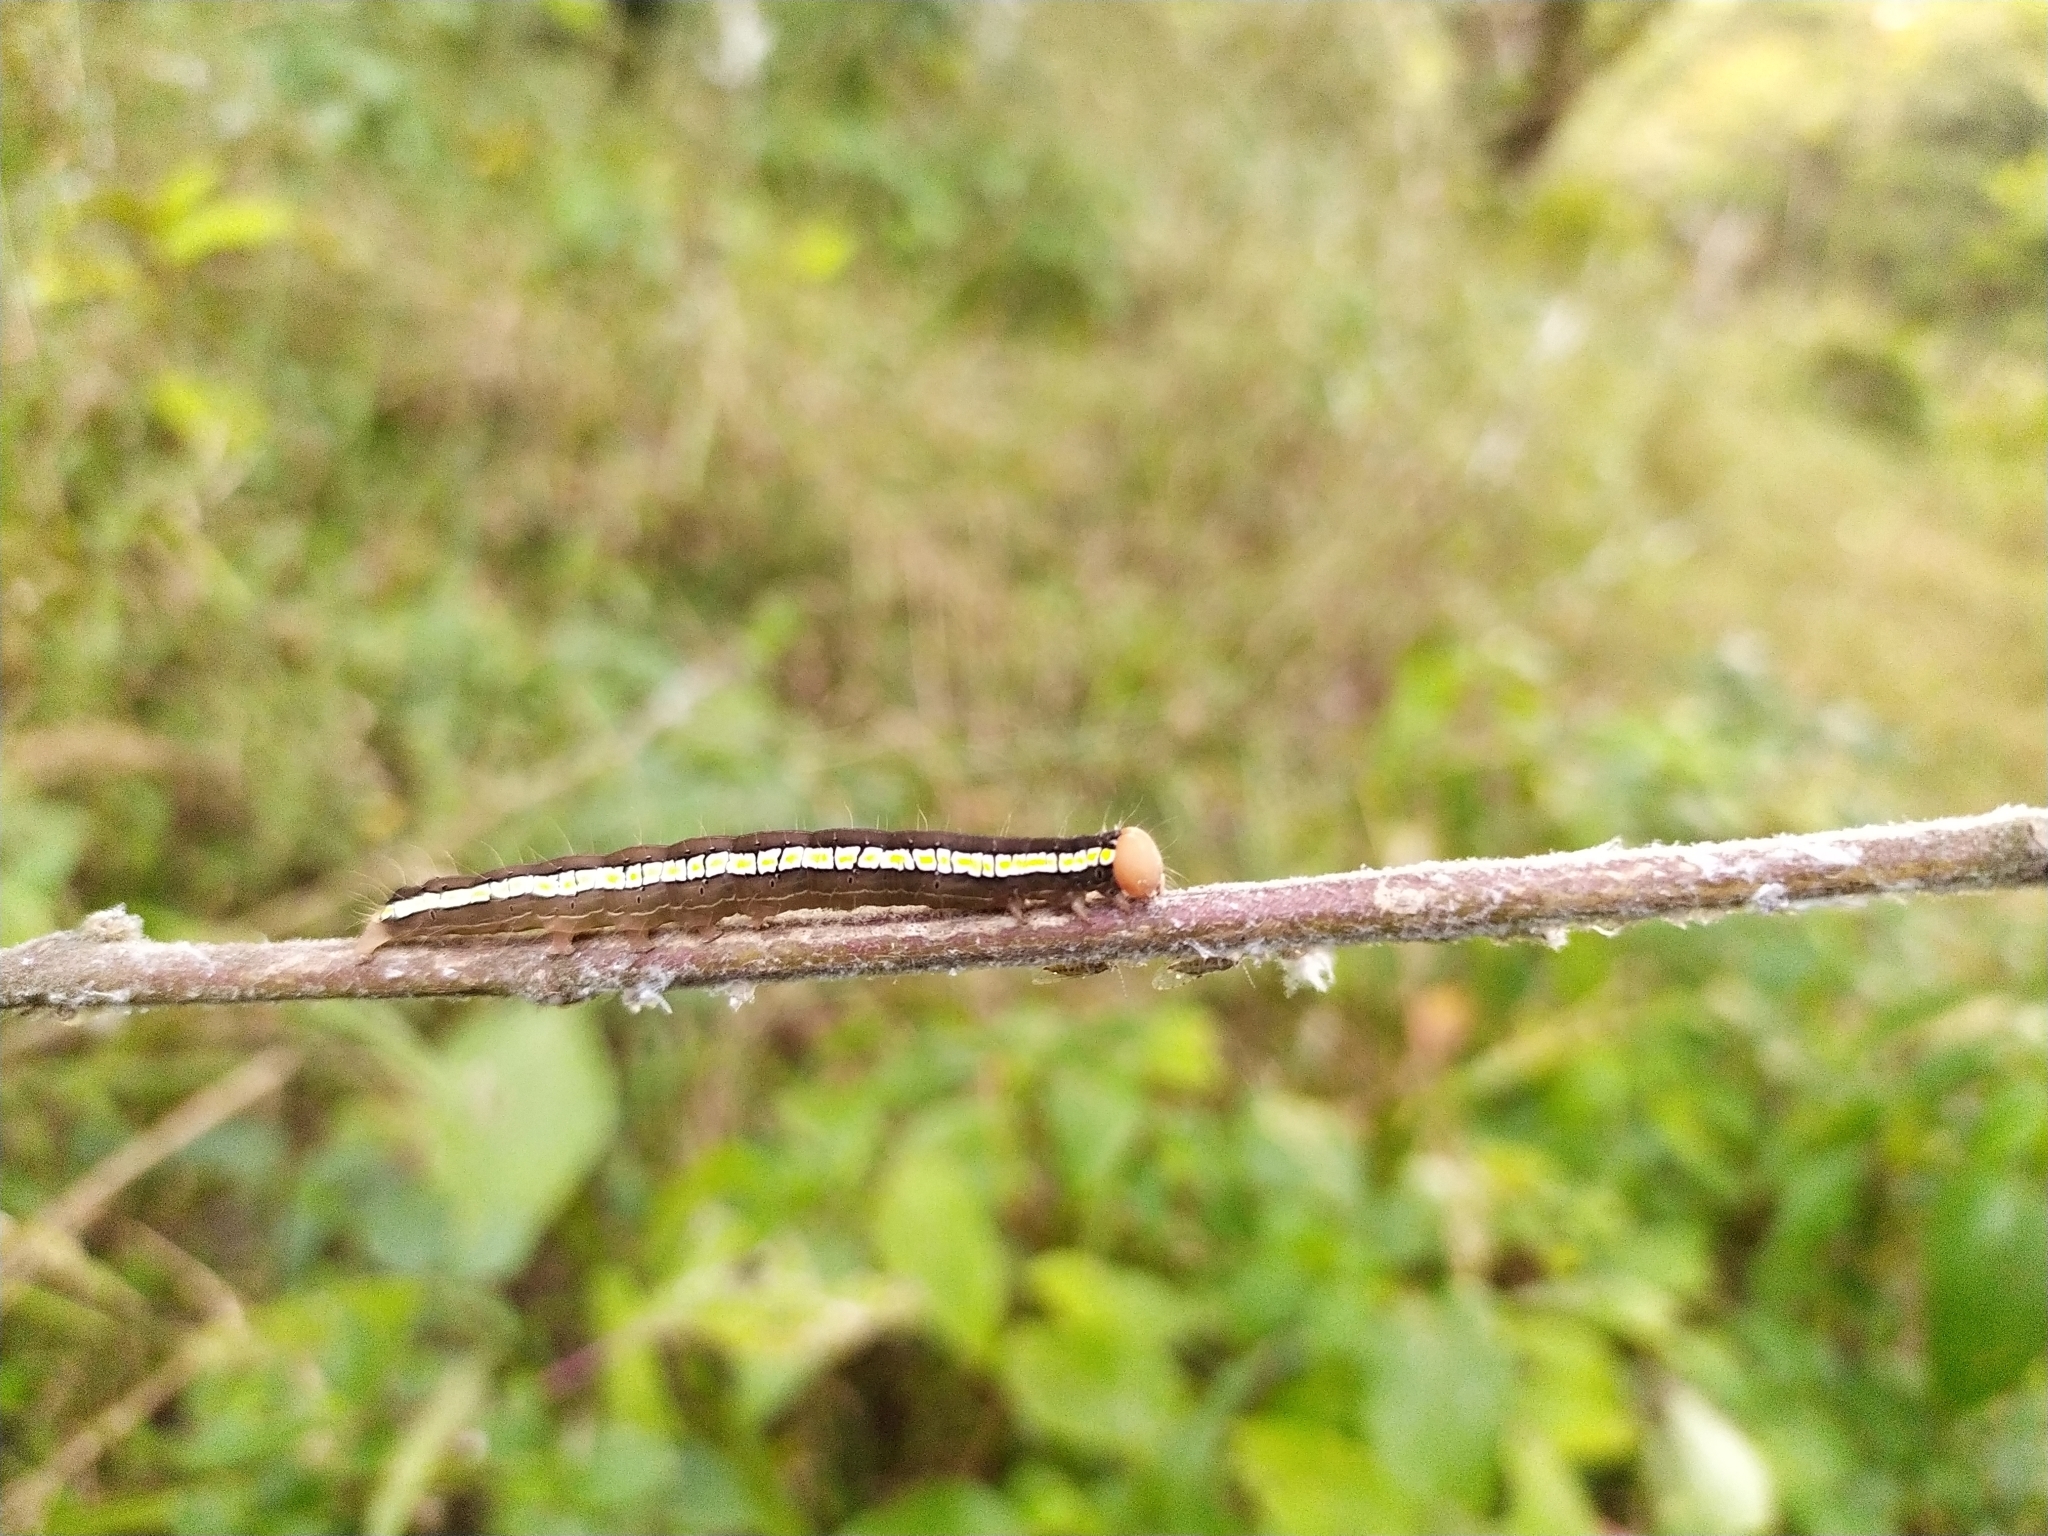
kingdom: Animalia
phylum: Arthropoda
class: Insecta
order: Lepidoptera
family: Erebidae
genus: Rusicada
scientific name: Rusicada combinans
